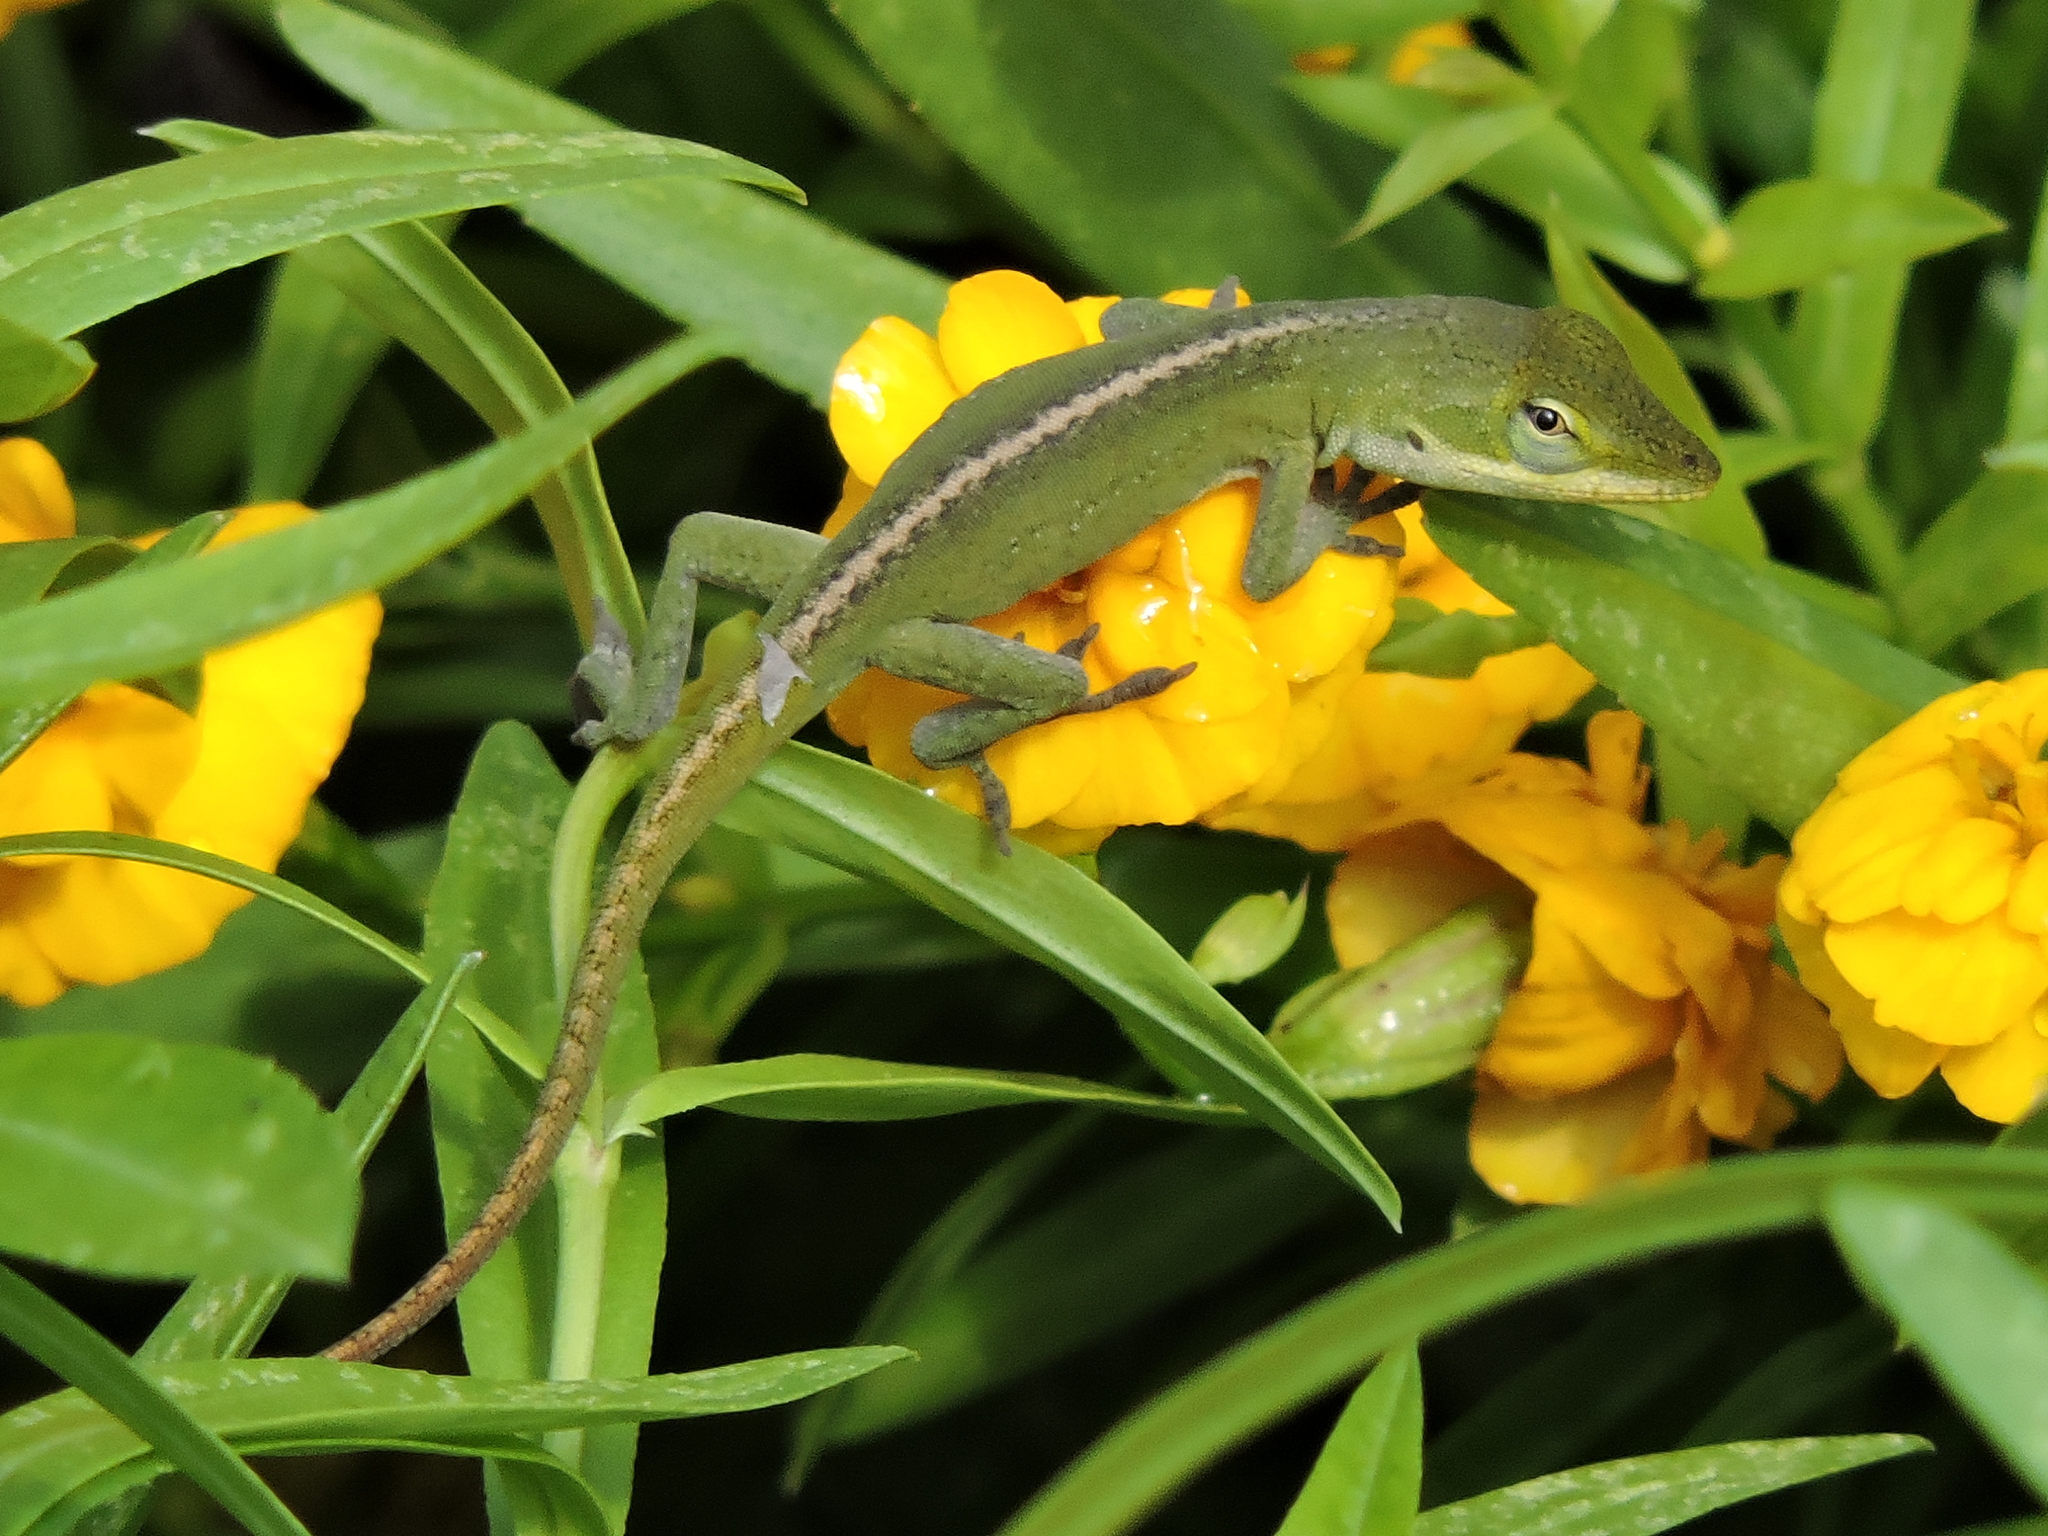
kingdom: Animalia
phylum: Chordata
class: Squamata
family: Dactyloidae
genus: Anolis
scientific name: Anolis carolinensis
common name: Green anole
